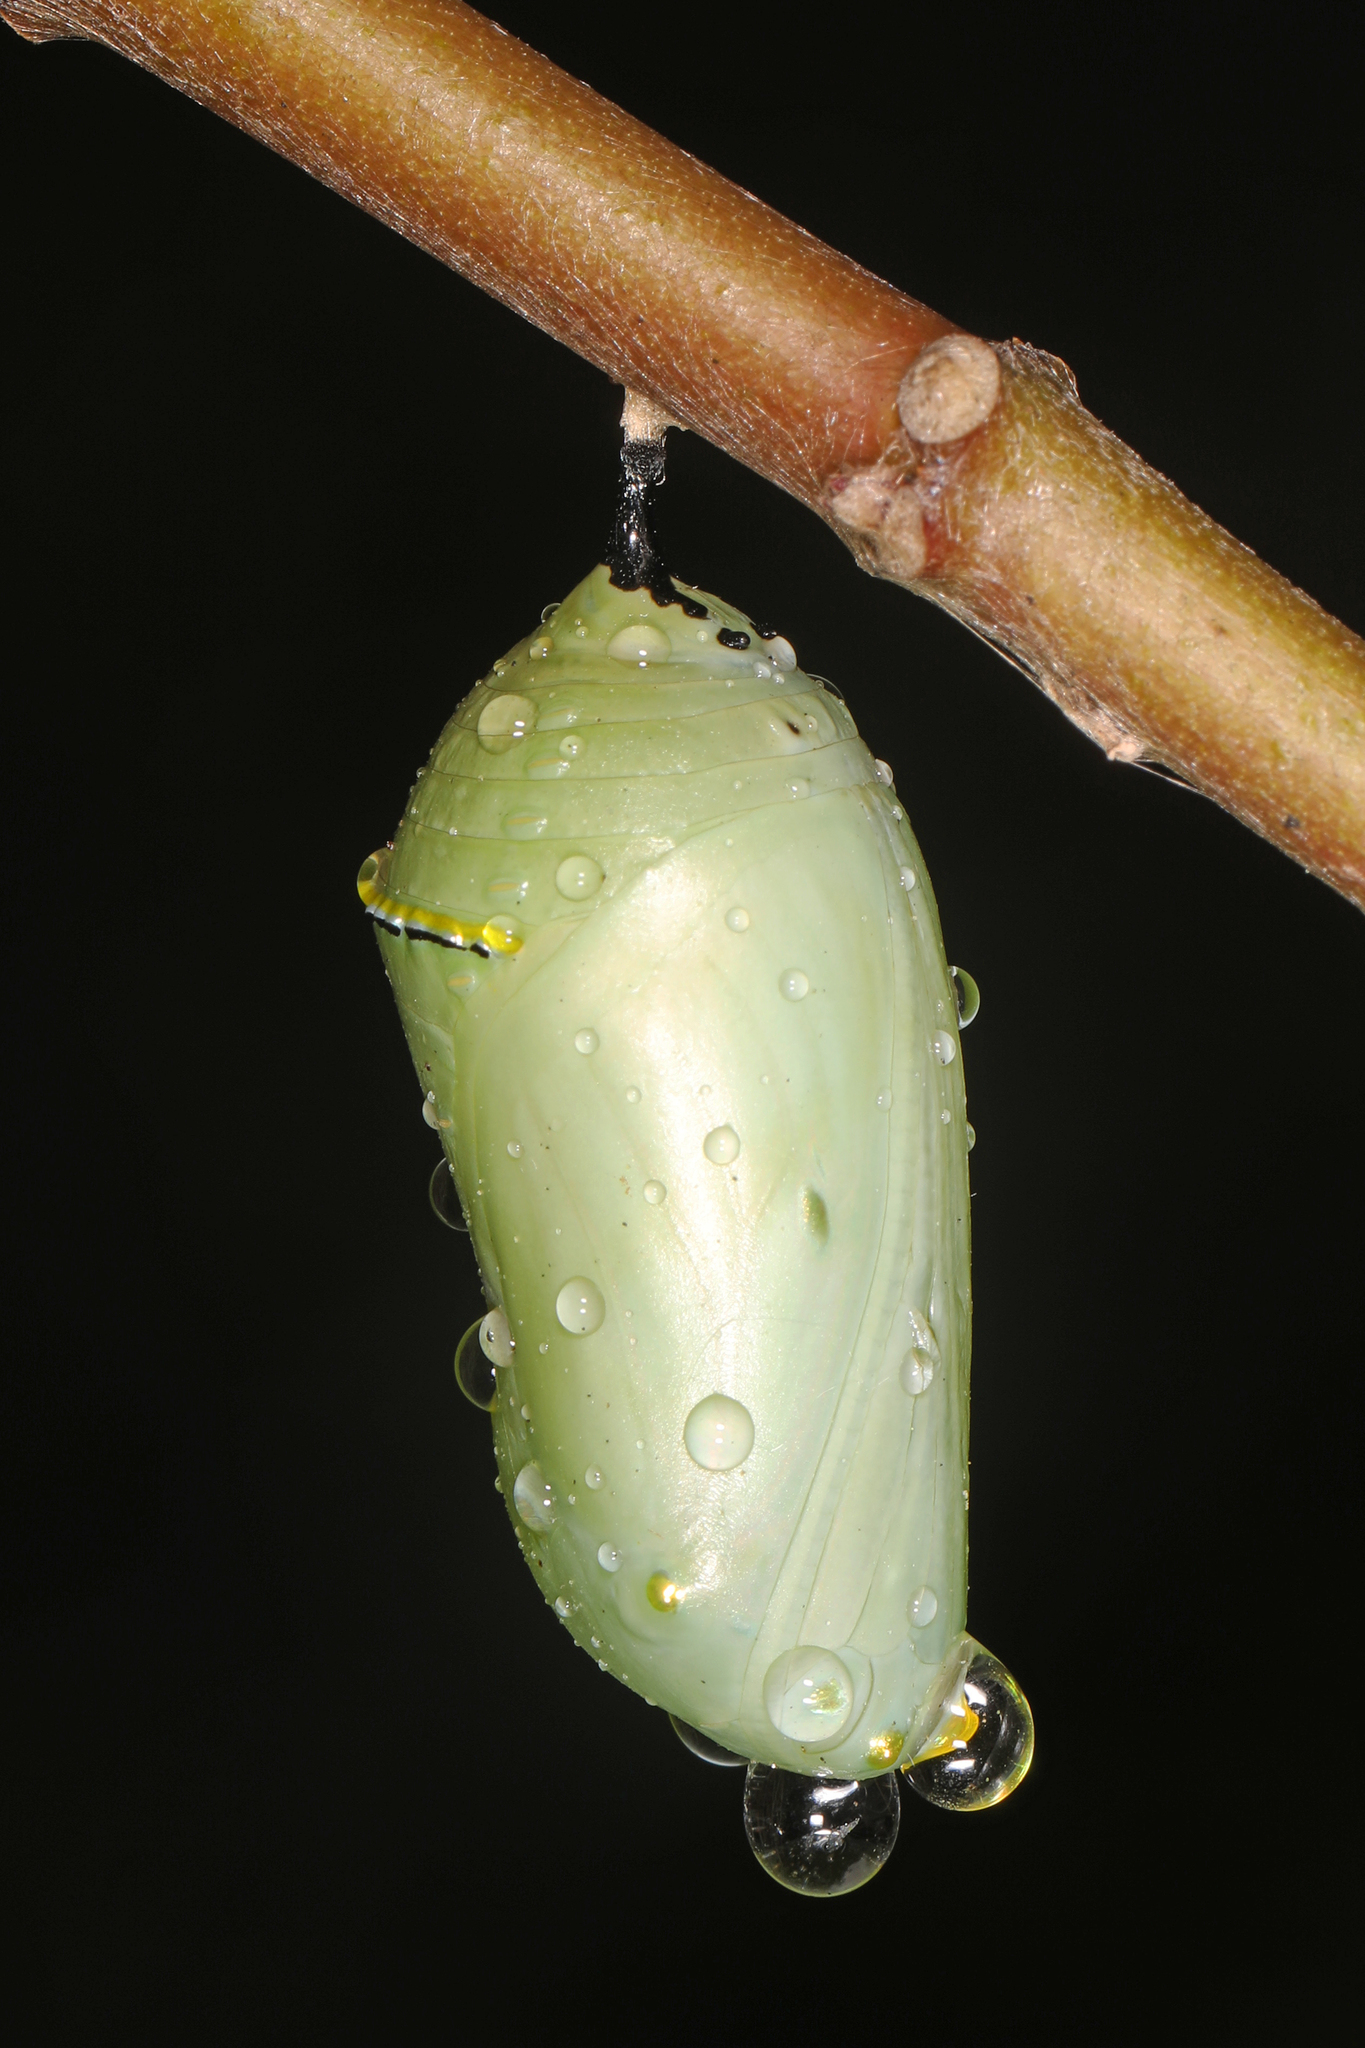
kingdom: Animalia
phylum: Arthropoda
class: Insecta
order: Lepidoptera
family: Nymphalidae
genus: Danaus
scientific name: Danaus plexippus
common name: Monarch
